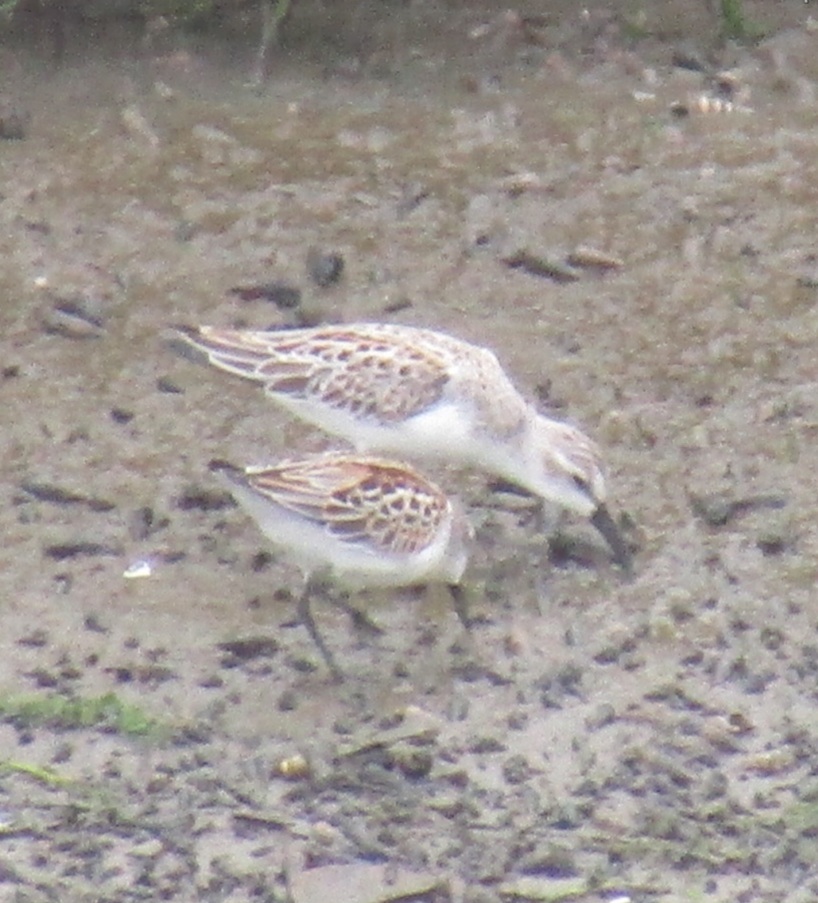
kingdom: Animalia
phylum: Chordata
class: Aves
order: Charadriiformes
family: Scolopacidae
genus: Calidris
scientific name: Calidris mauri
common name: Western sandpiper
